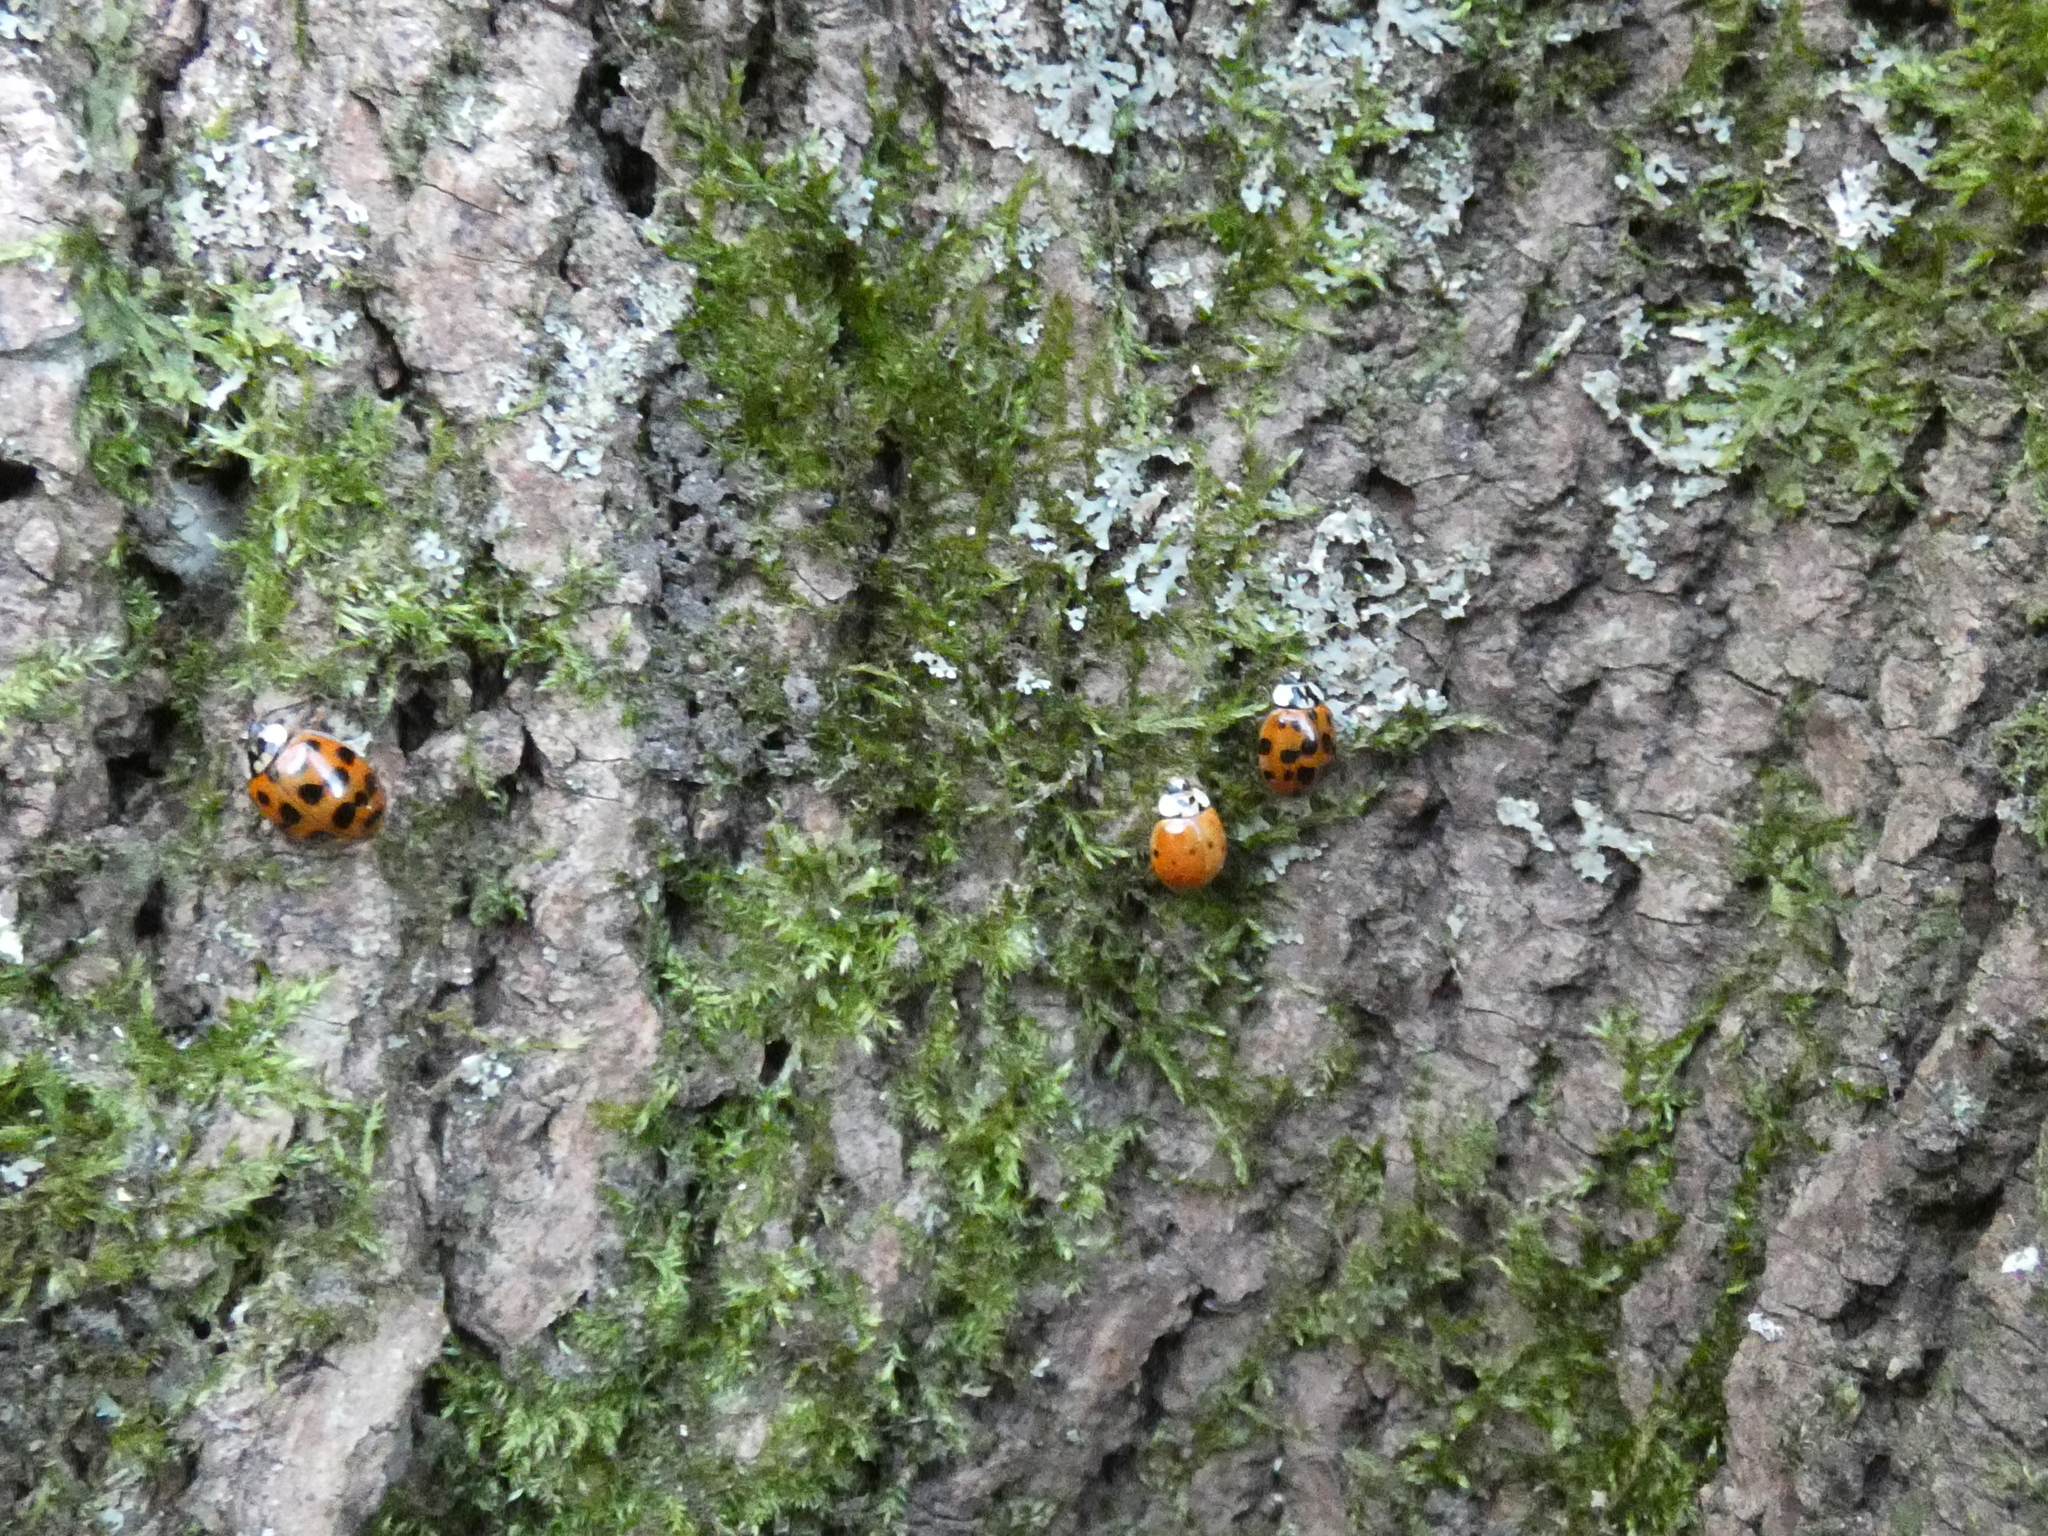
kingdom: Animalia
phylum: Arthropoda
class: Insecta
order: Coleoptera
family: Coccinellidae
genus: Harmonia
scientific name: Harmonia axyridis
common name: Harlequin ladybird
